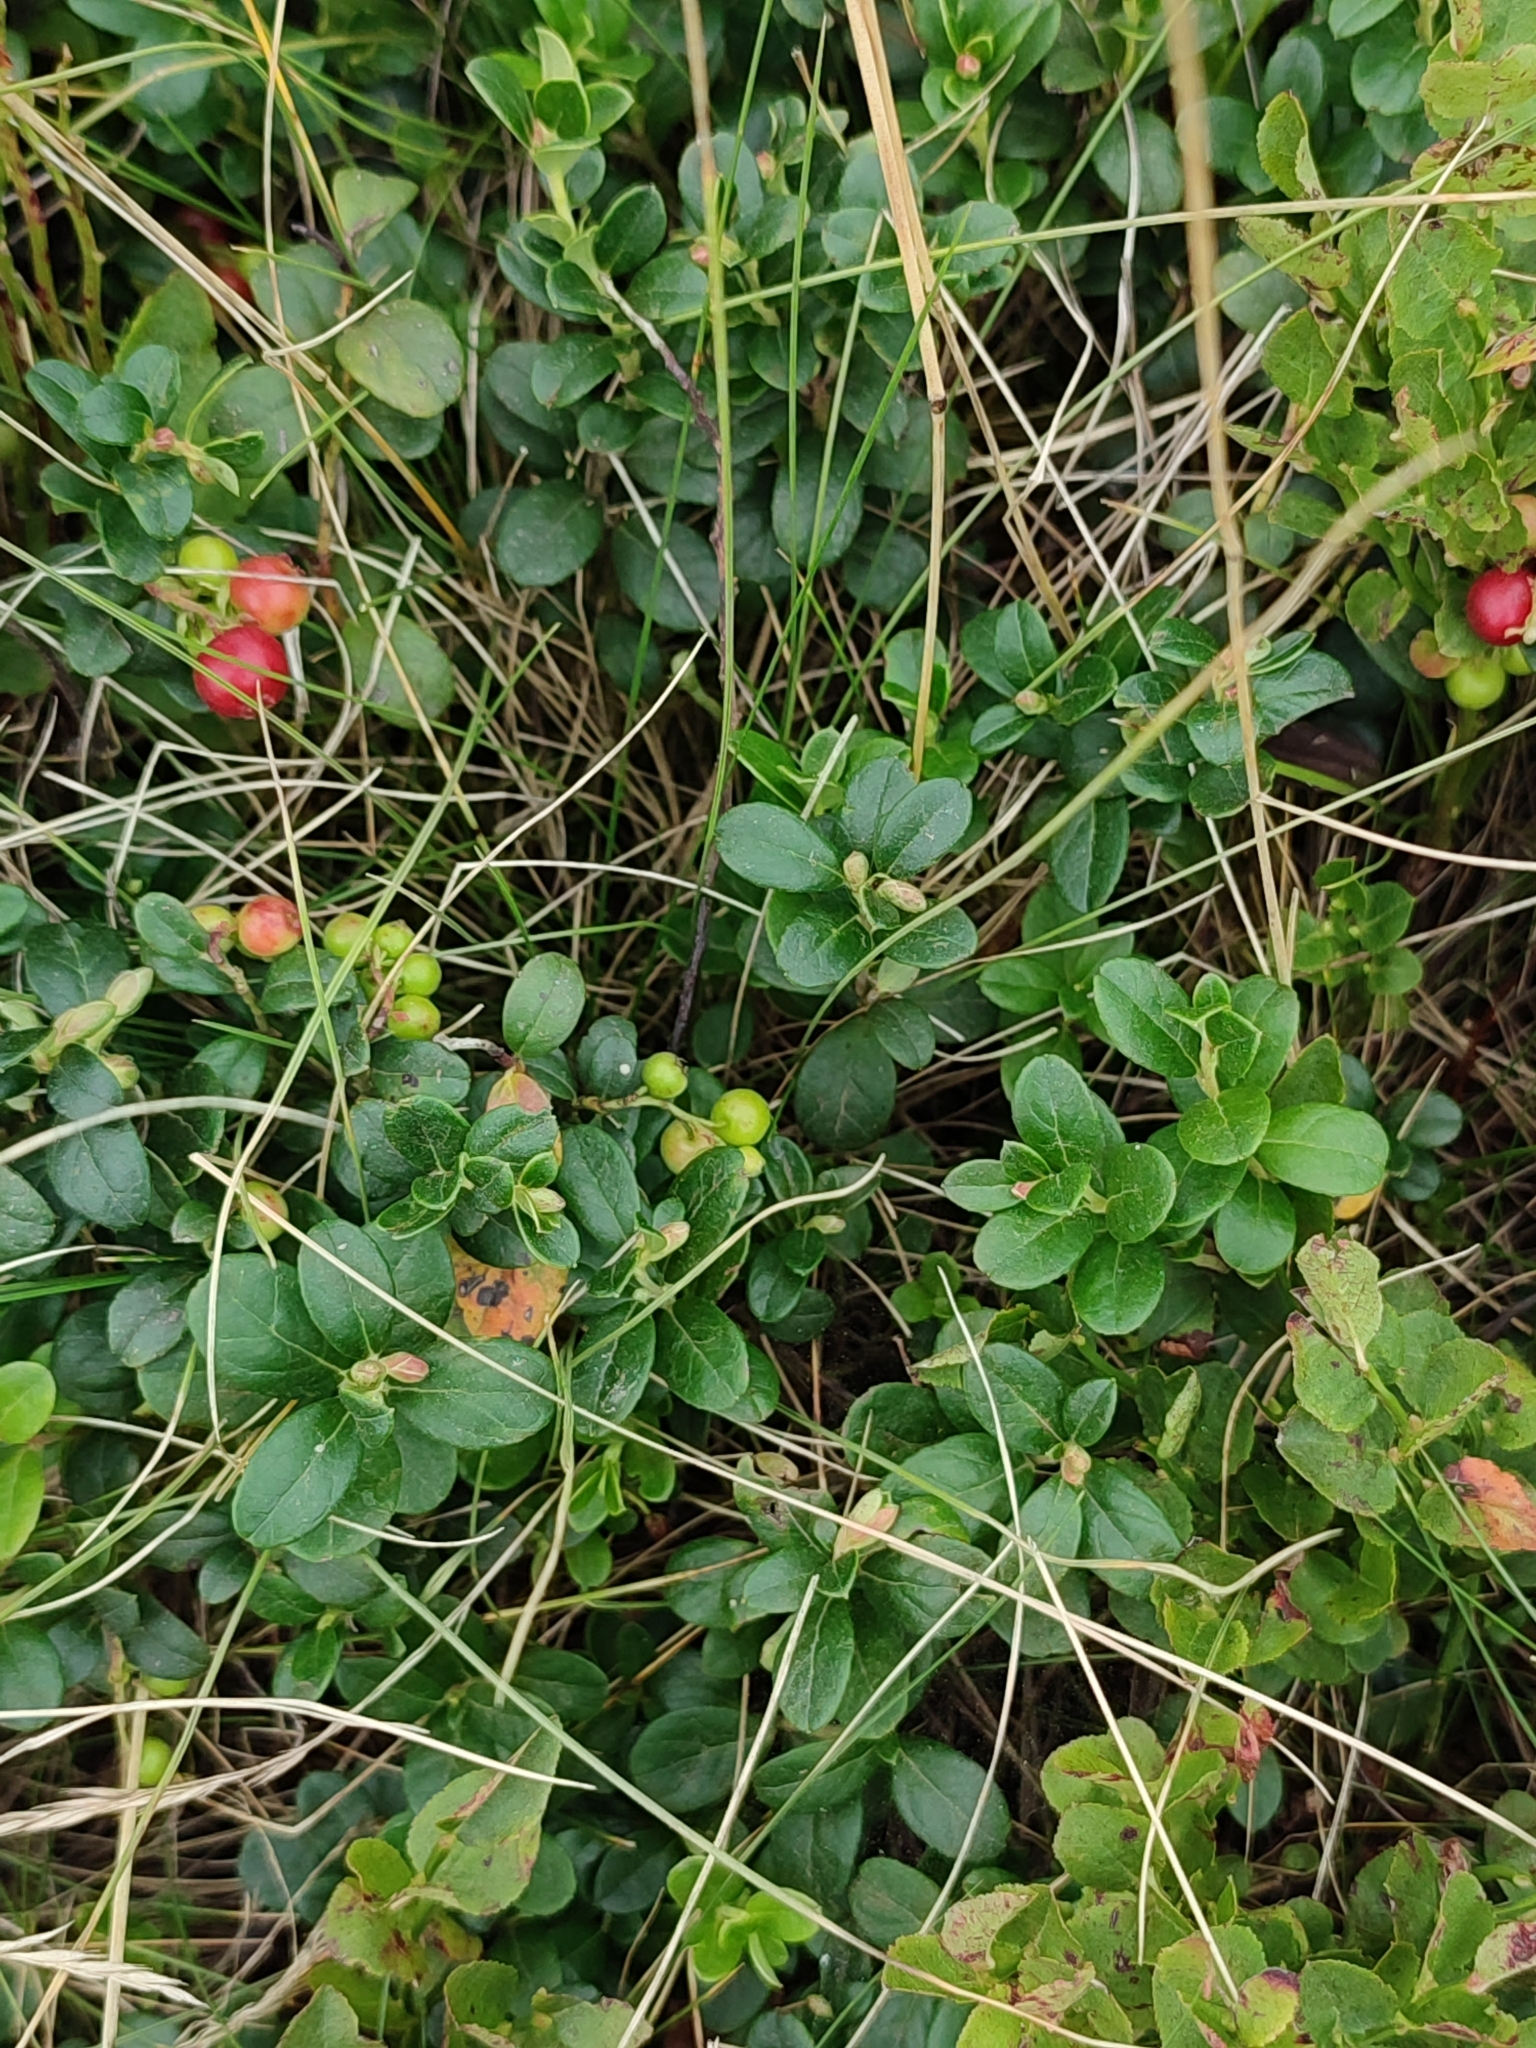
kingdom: Plantae
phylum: Tracheophyta
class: Magnoliopsida
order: Ericales
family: Ericaceae
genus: Vaccinium
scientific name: Vaccinium vitis-idaea
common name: Cowberry
